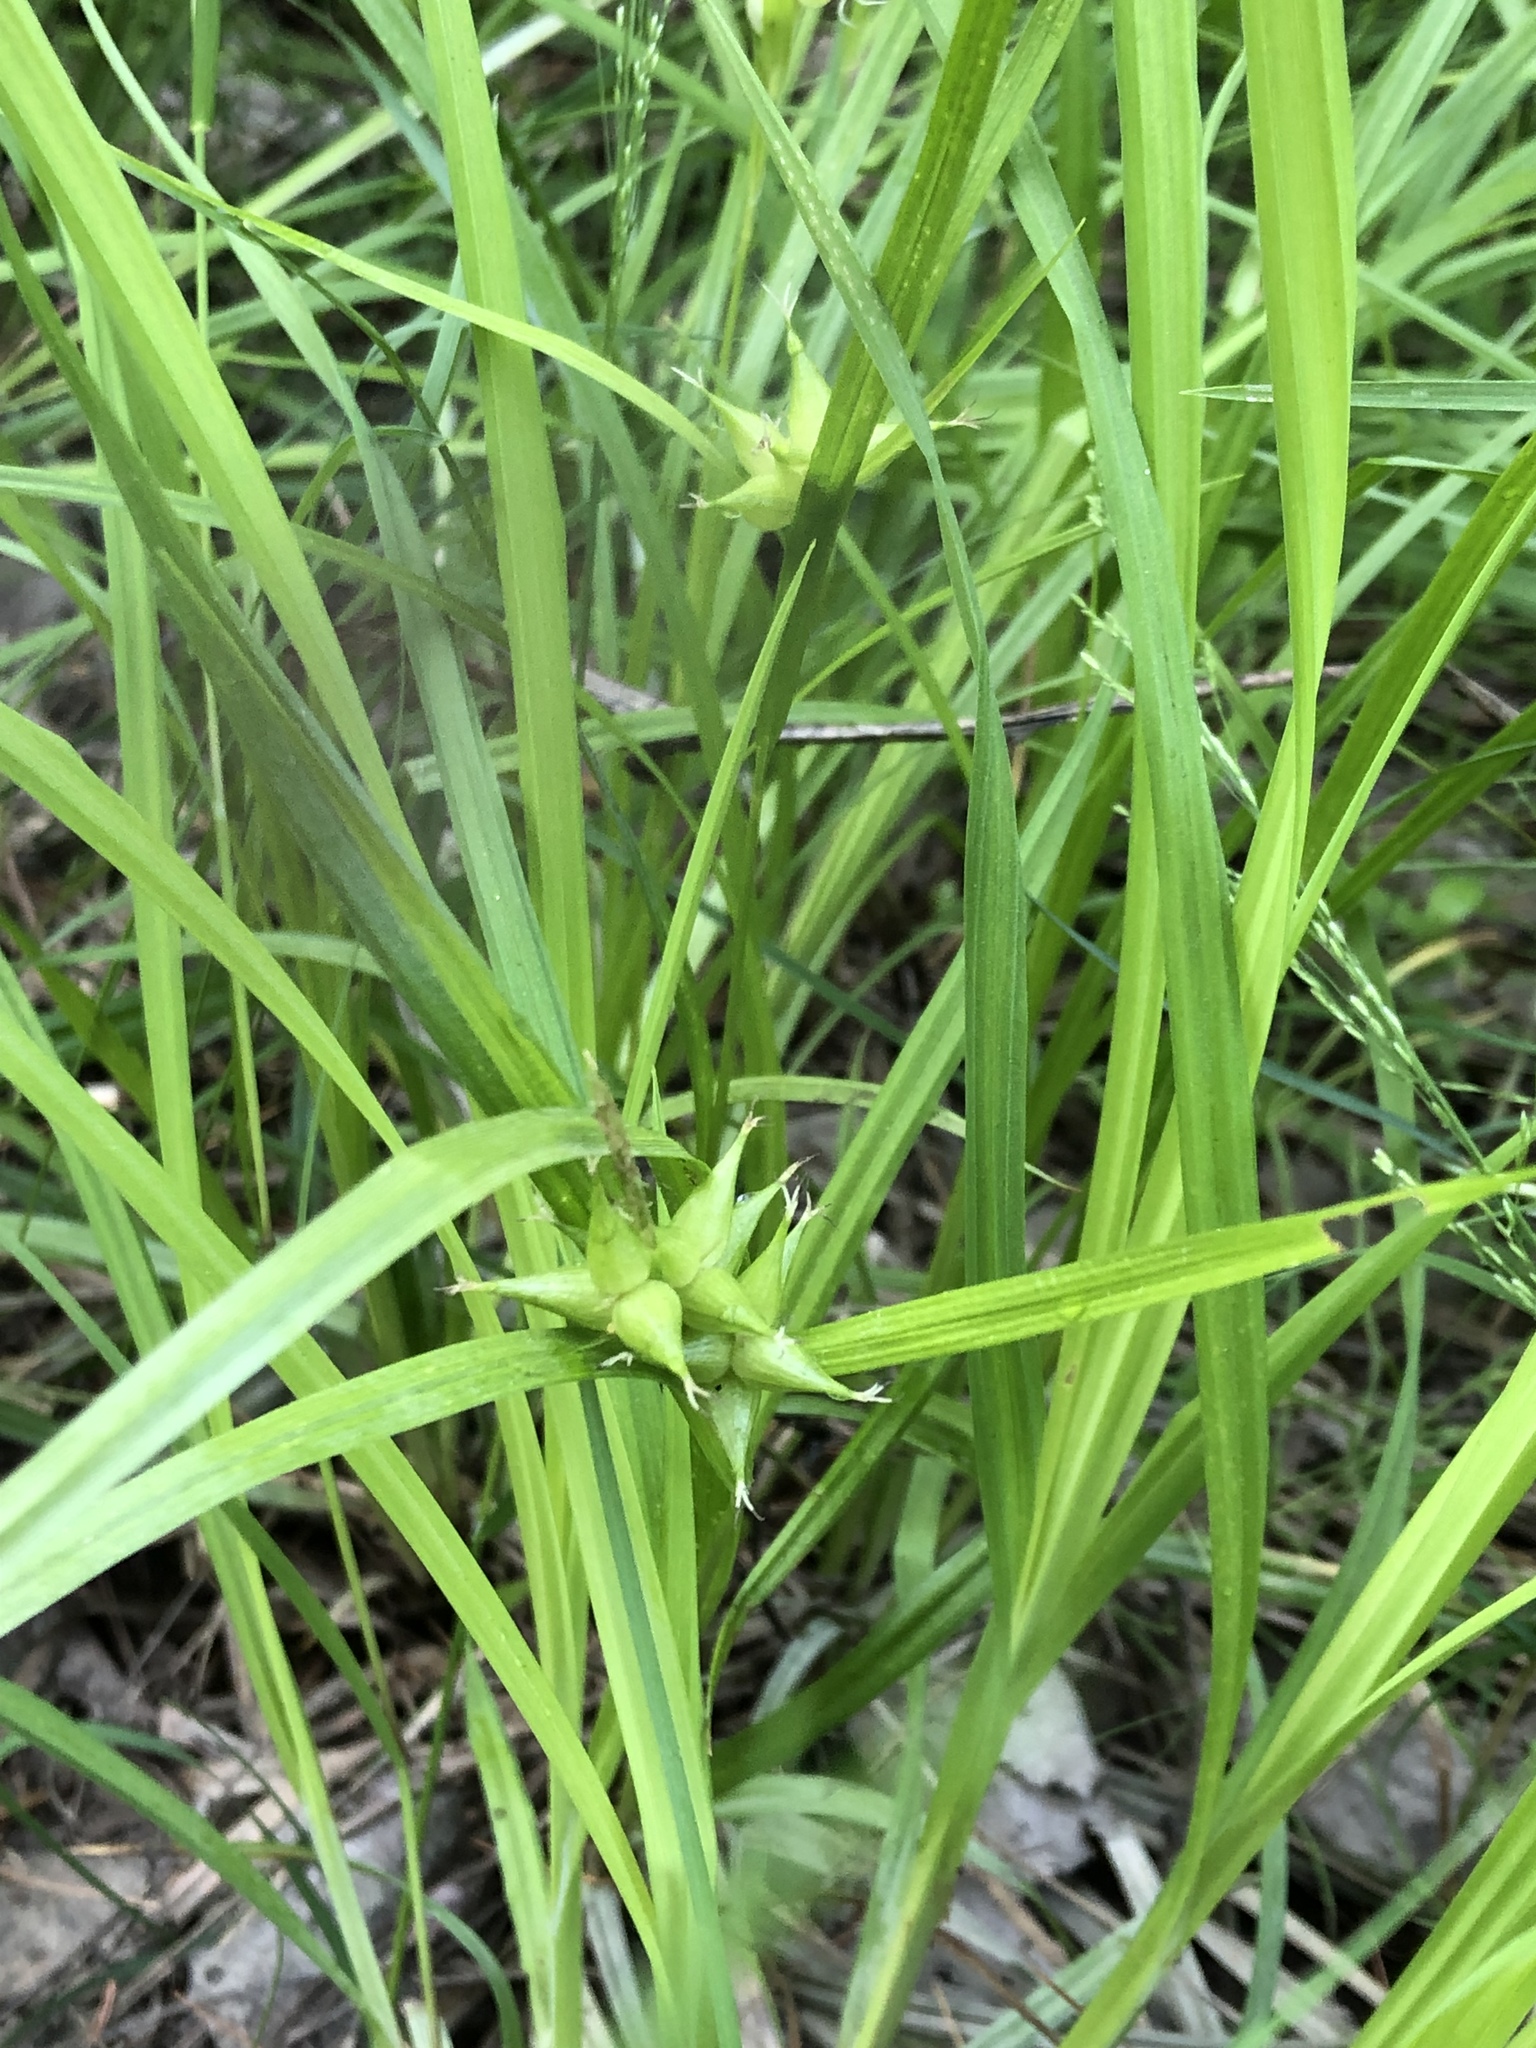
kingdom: Plantae
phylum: Tracheophyta
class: Liliopsida
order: Poales
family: Cyperaceae
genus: Carex
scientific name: Carex intumescens
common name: Greater bladder sedge
